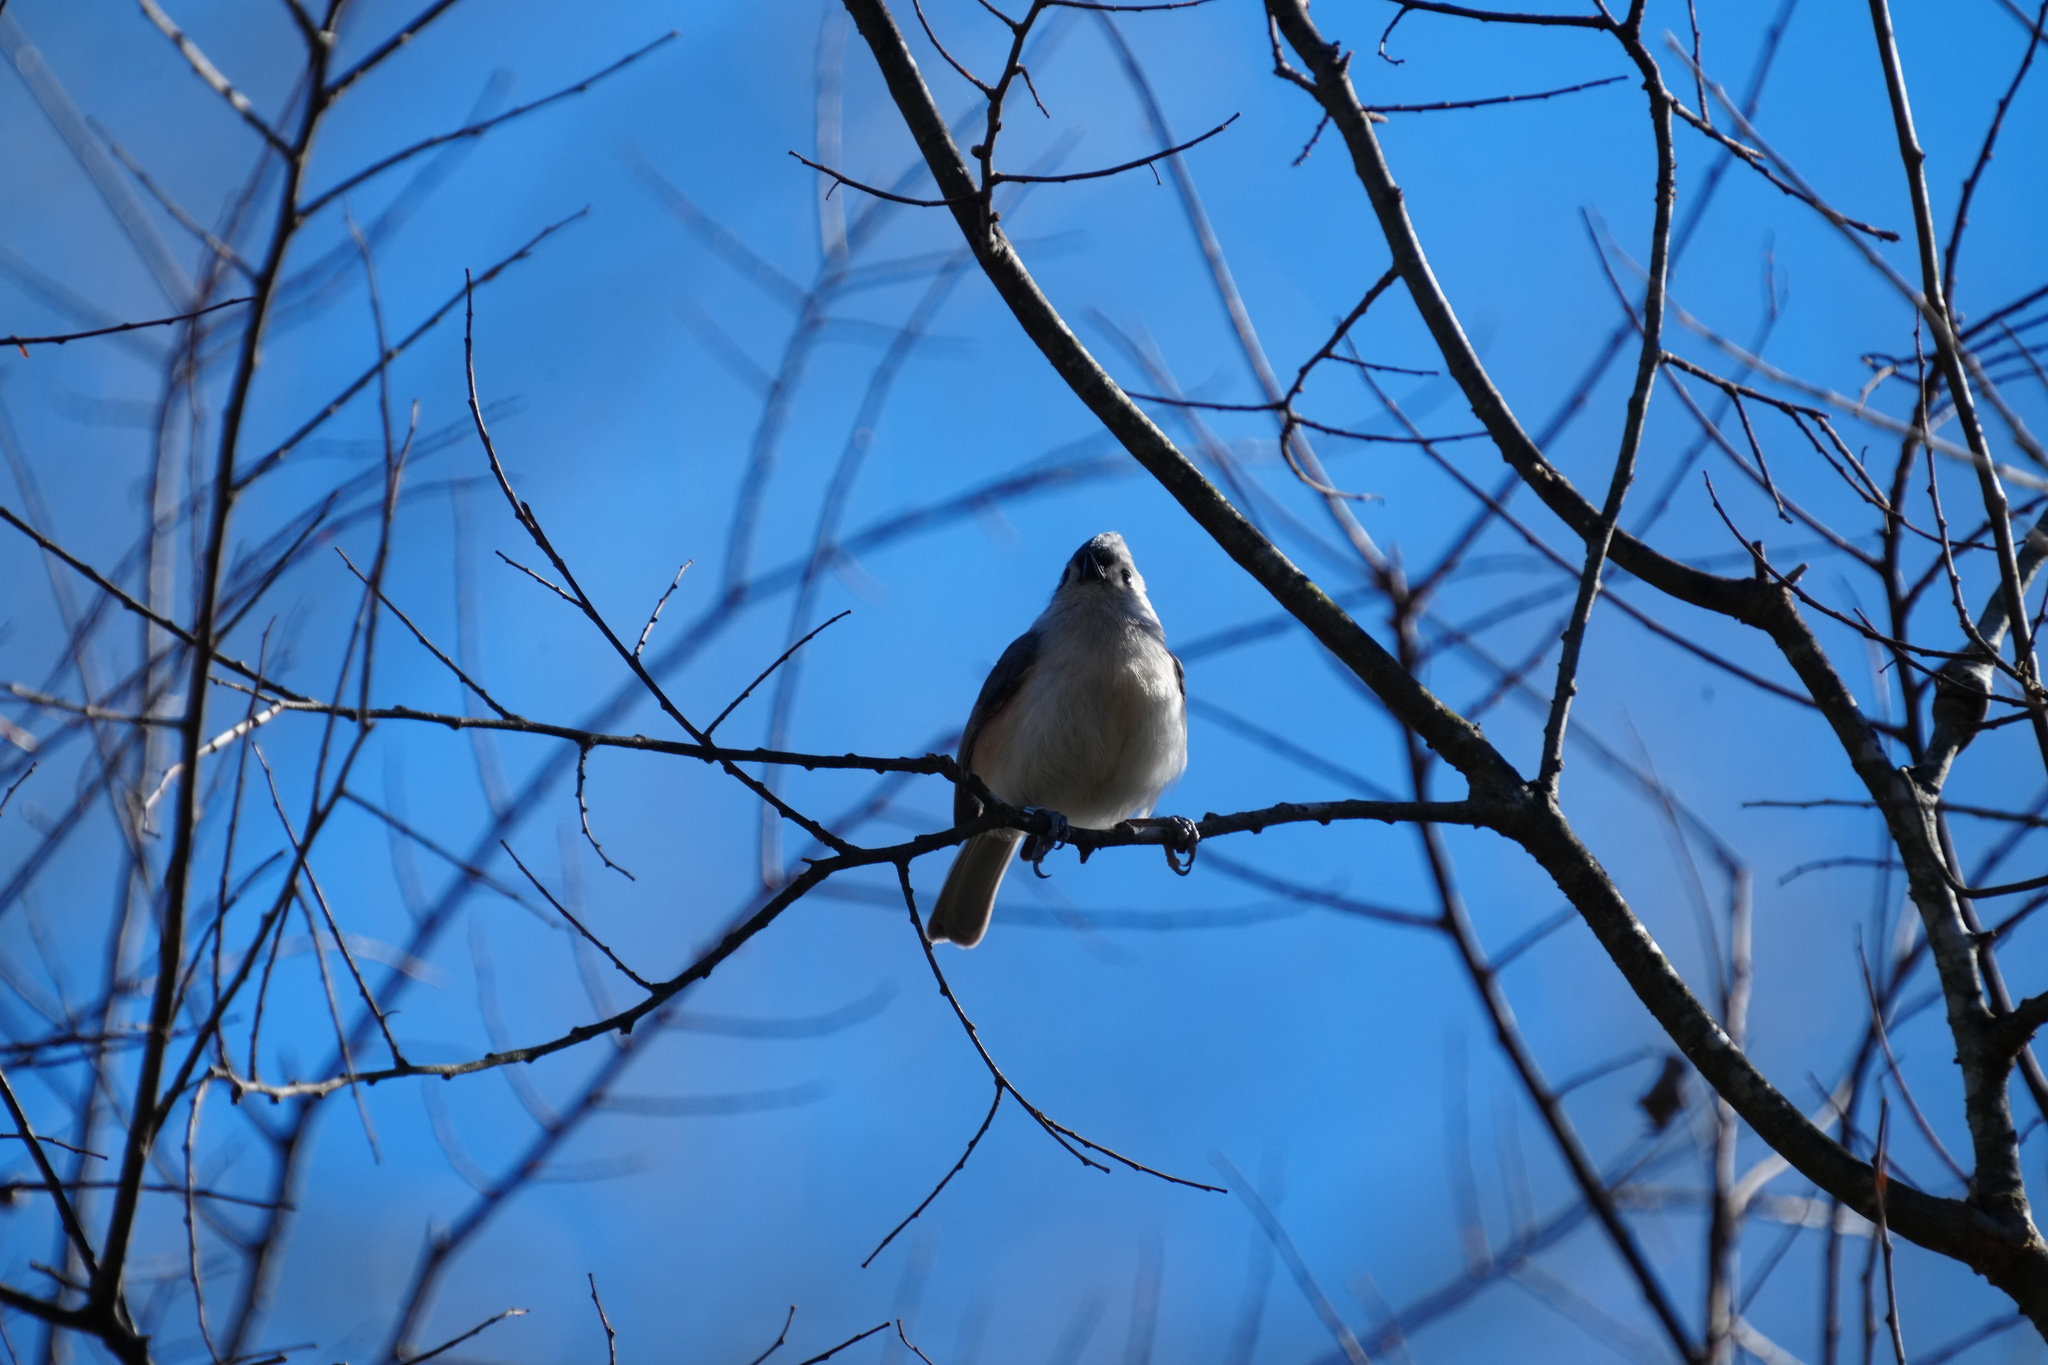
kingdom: Animalia
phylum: Chordata
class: Aves
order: Passeriformes
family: Paridae
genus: Baeolophus
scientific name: Baeolophus bicolor
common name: Tufted titmouse
